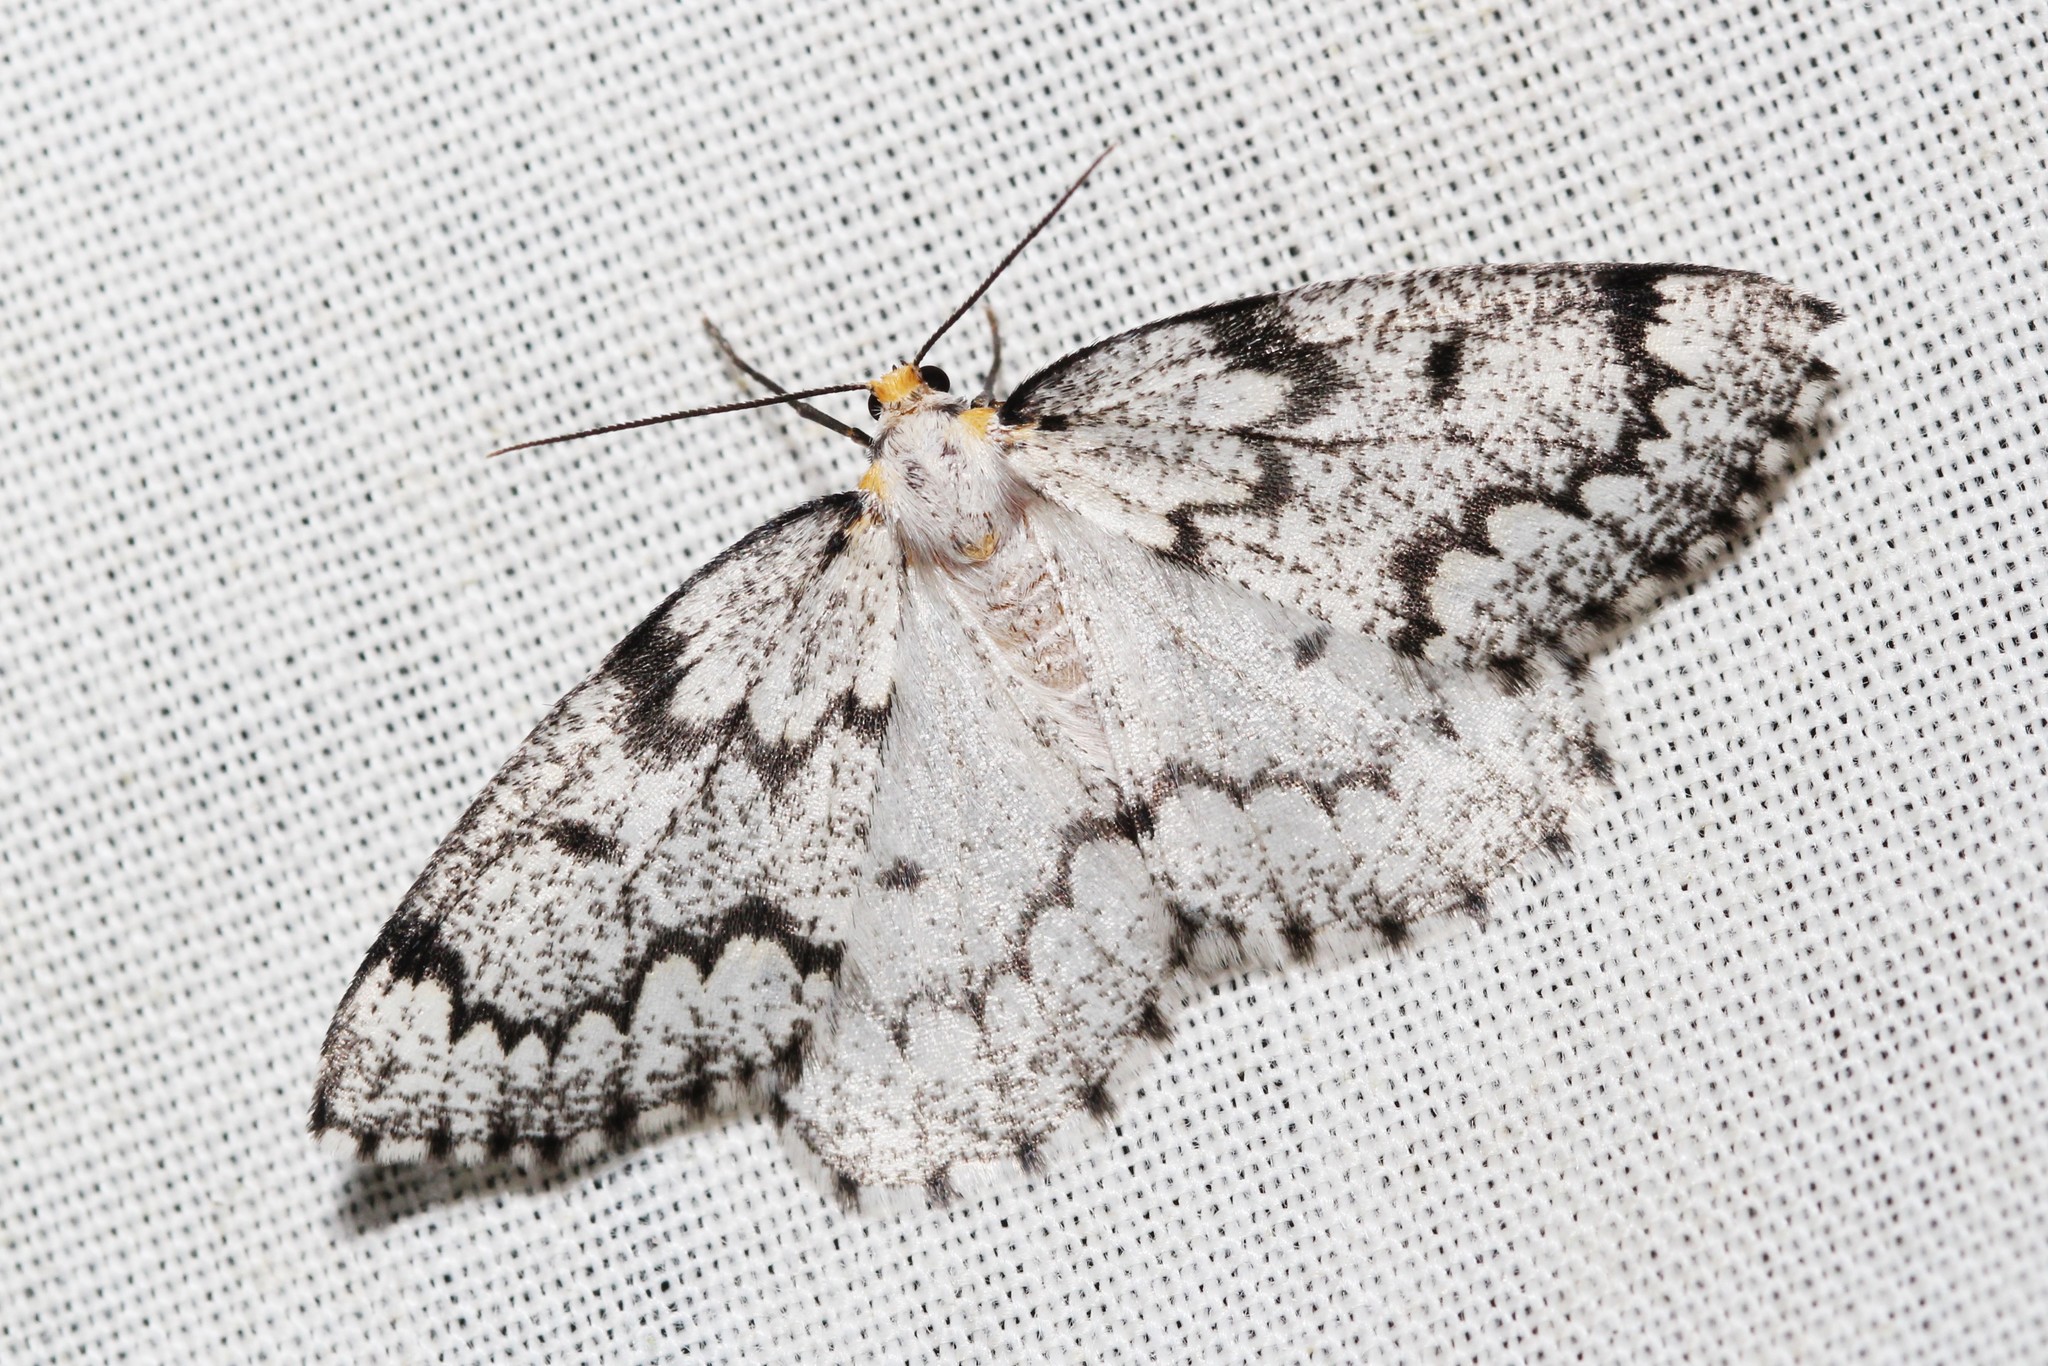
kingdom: Animalia
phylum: Arthropoda
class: Insecta
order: Lepidoptera
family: Geometridae
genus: Nepytia
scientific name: Nepytia canosaria
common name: False hemlock looper
